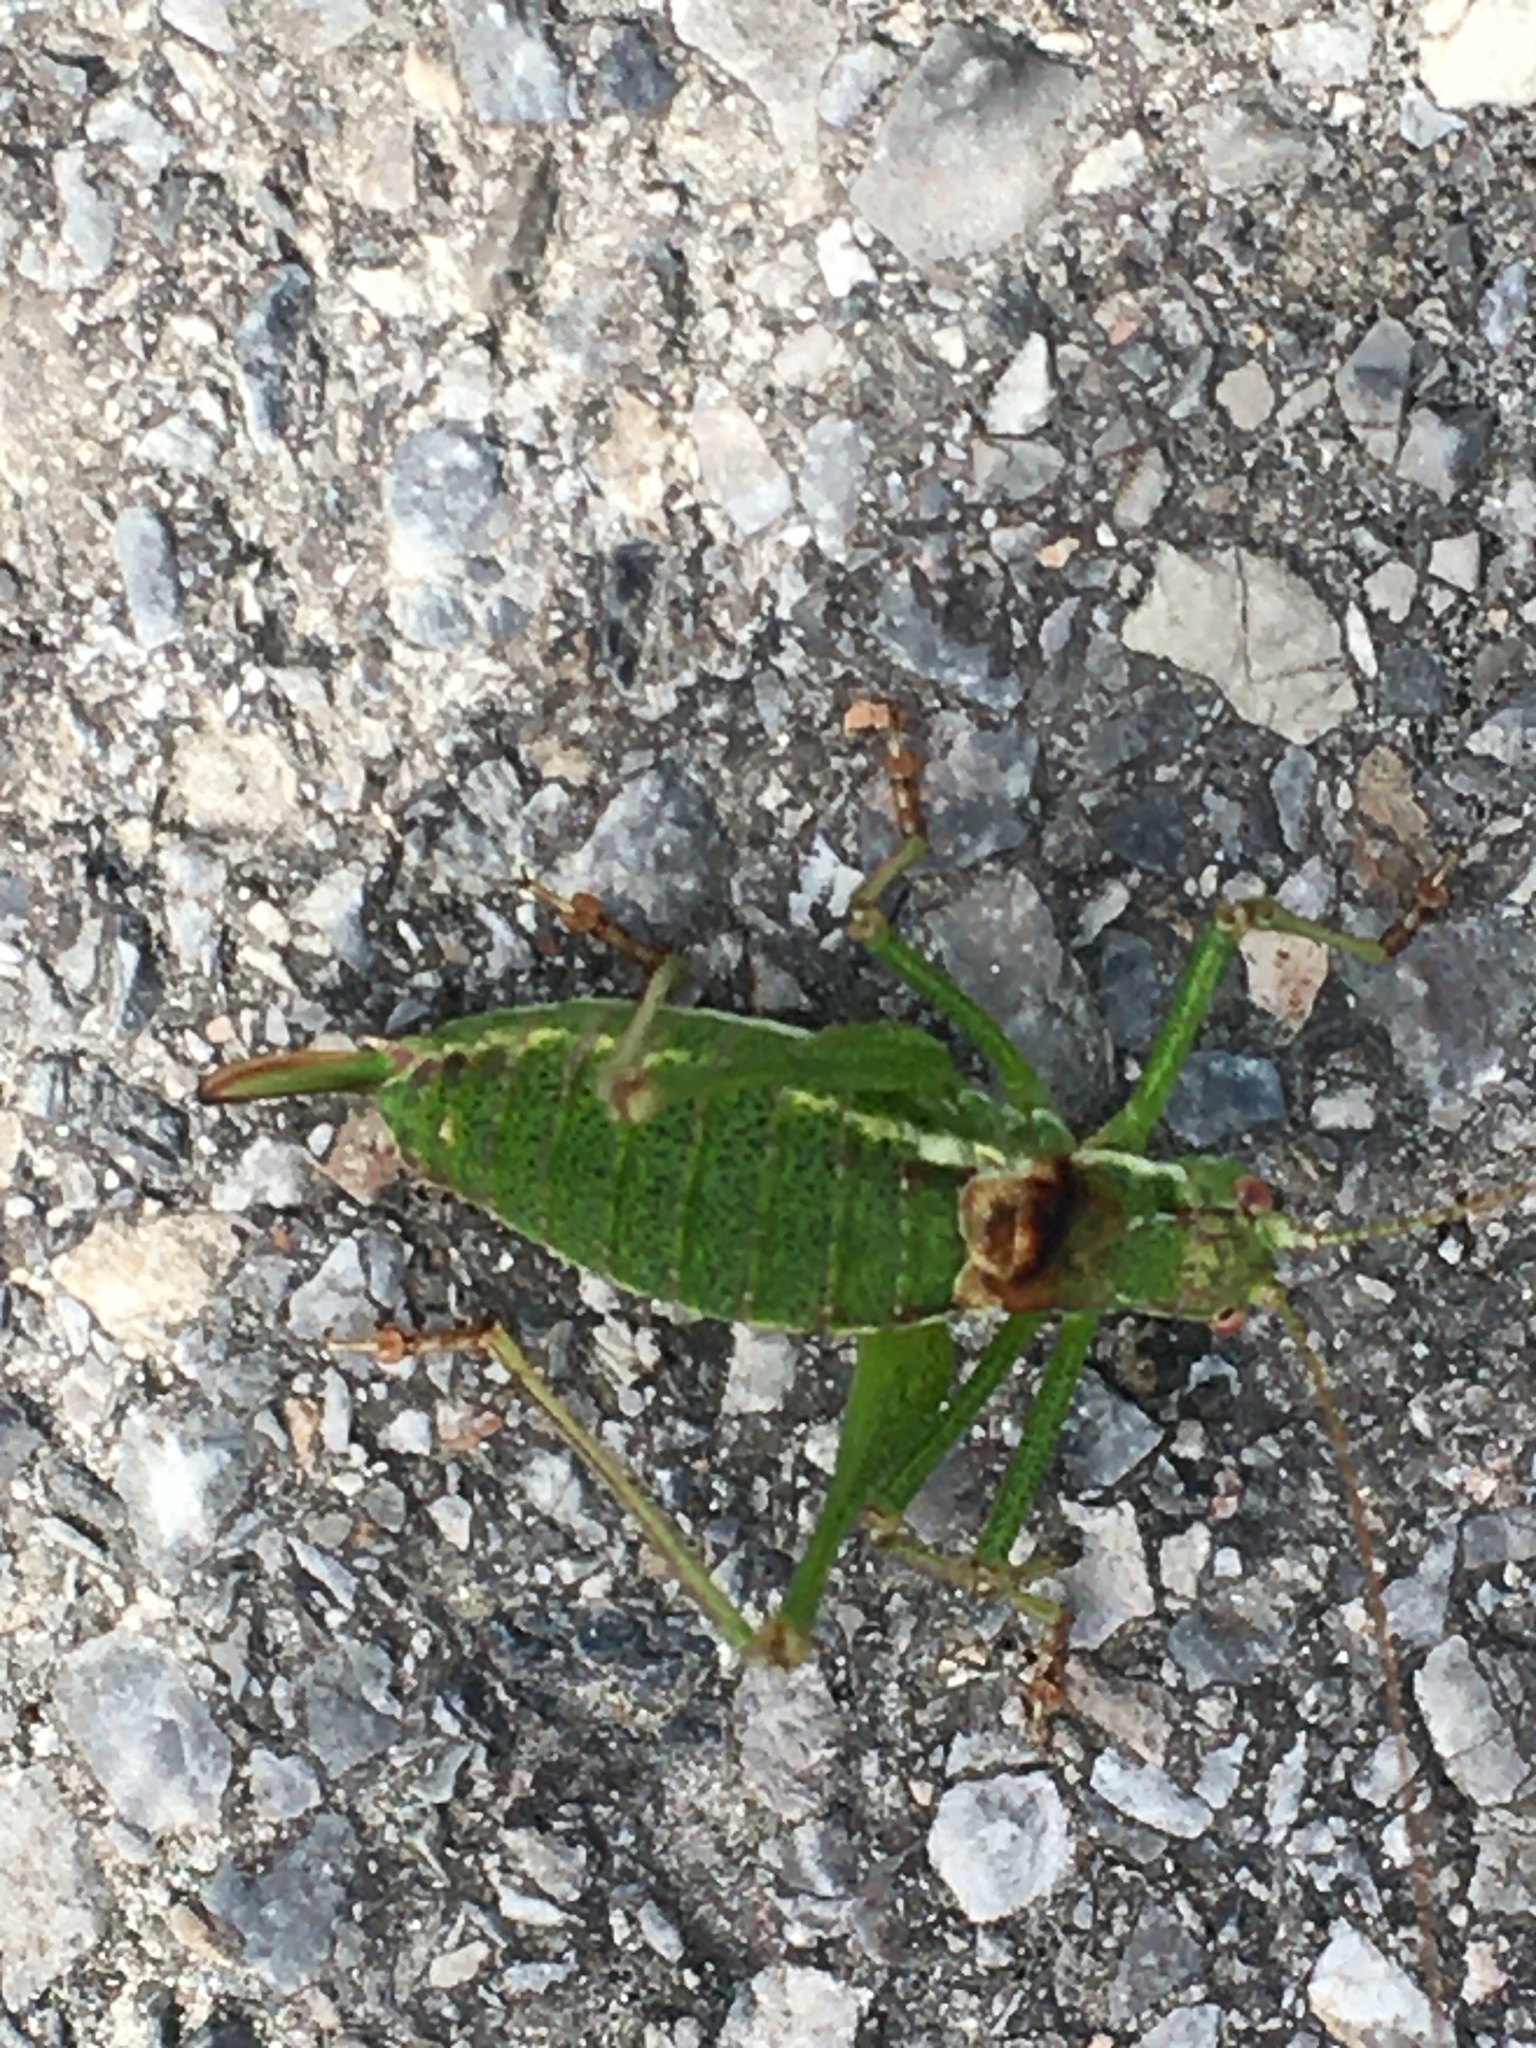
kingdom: Animalia
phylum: Arthropoda
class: Insecta
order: Orthoptera
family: Tettigoniidae
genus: Leptophyes
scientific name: Leptophyes albovittata
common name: Striped bush-cricket
